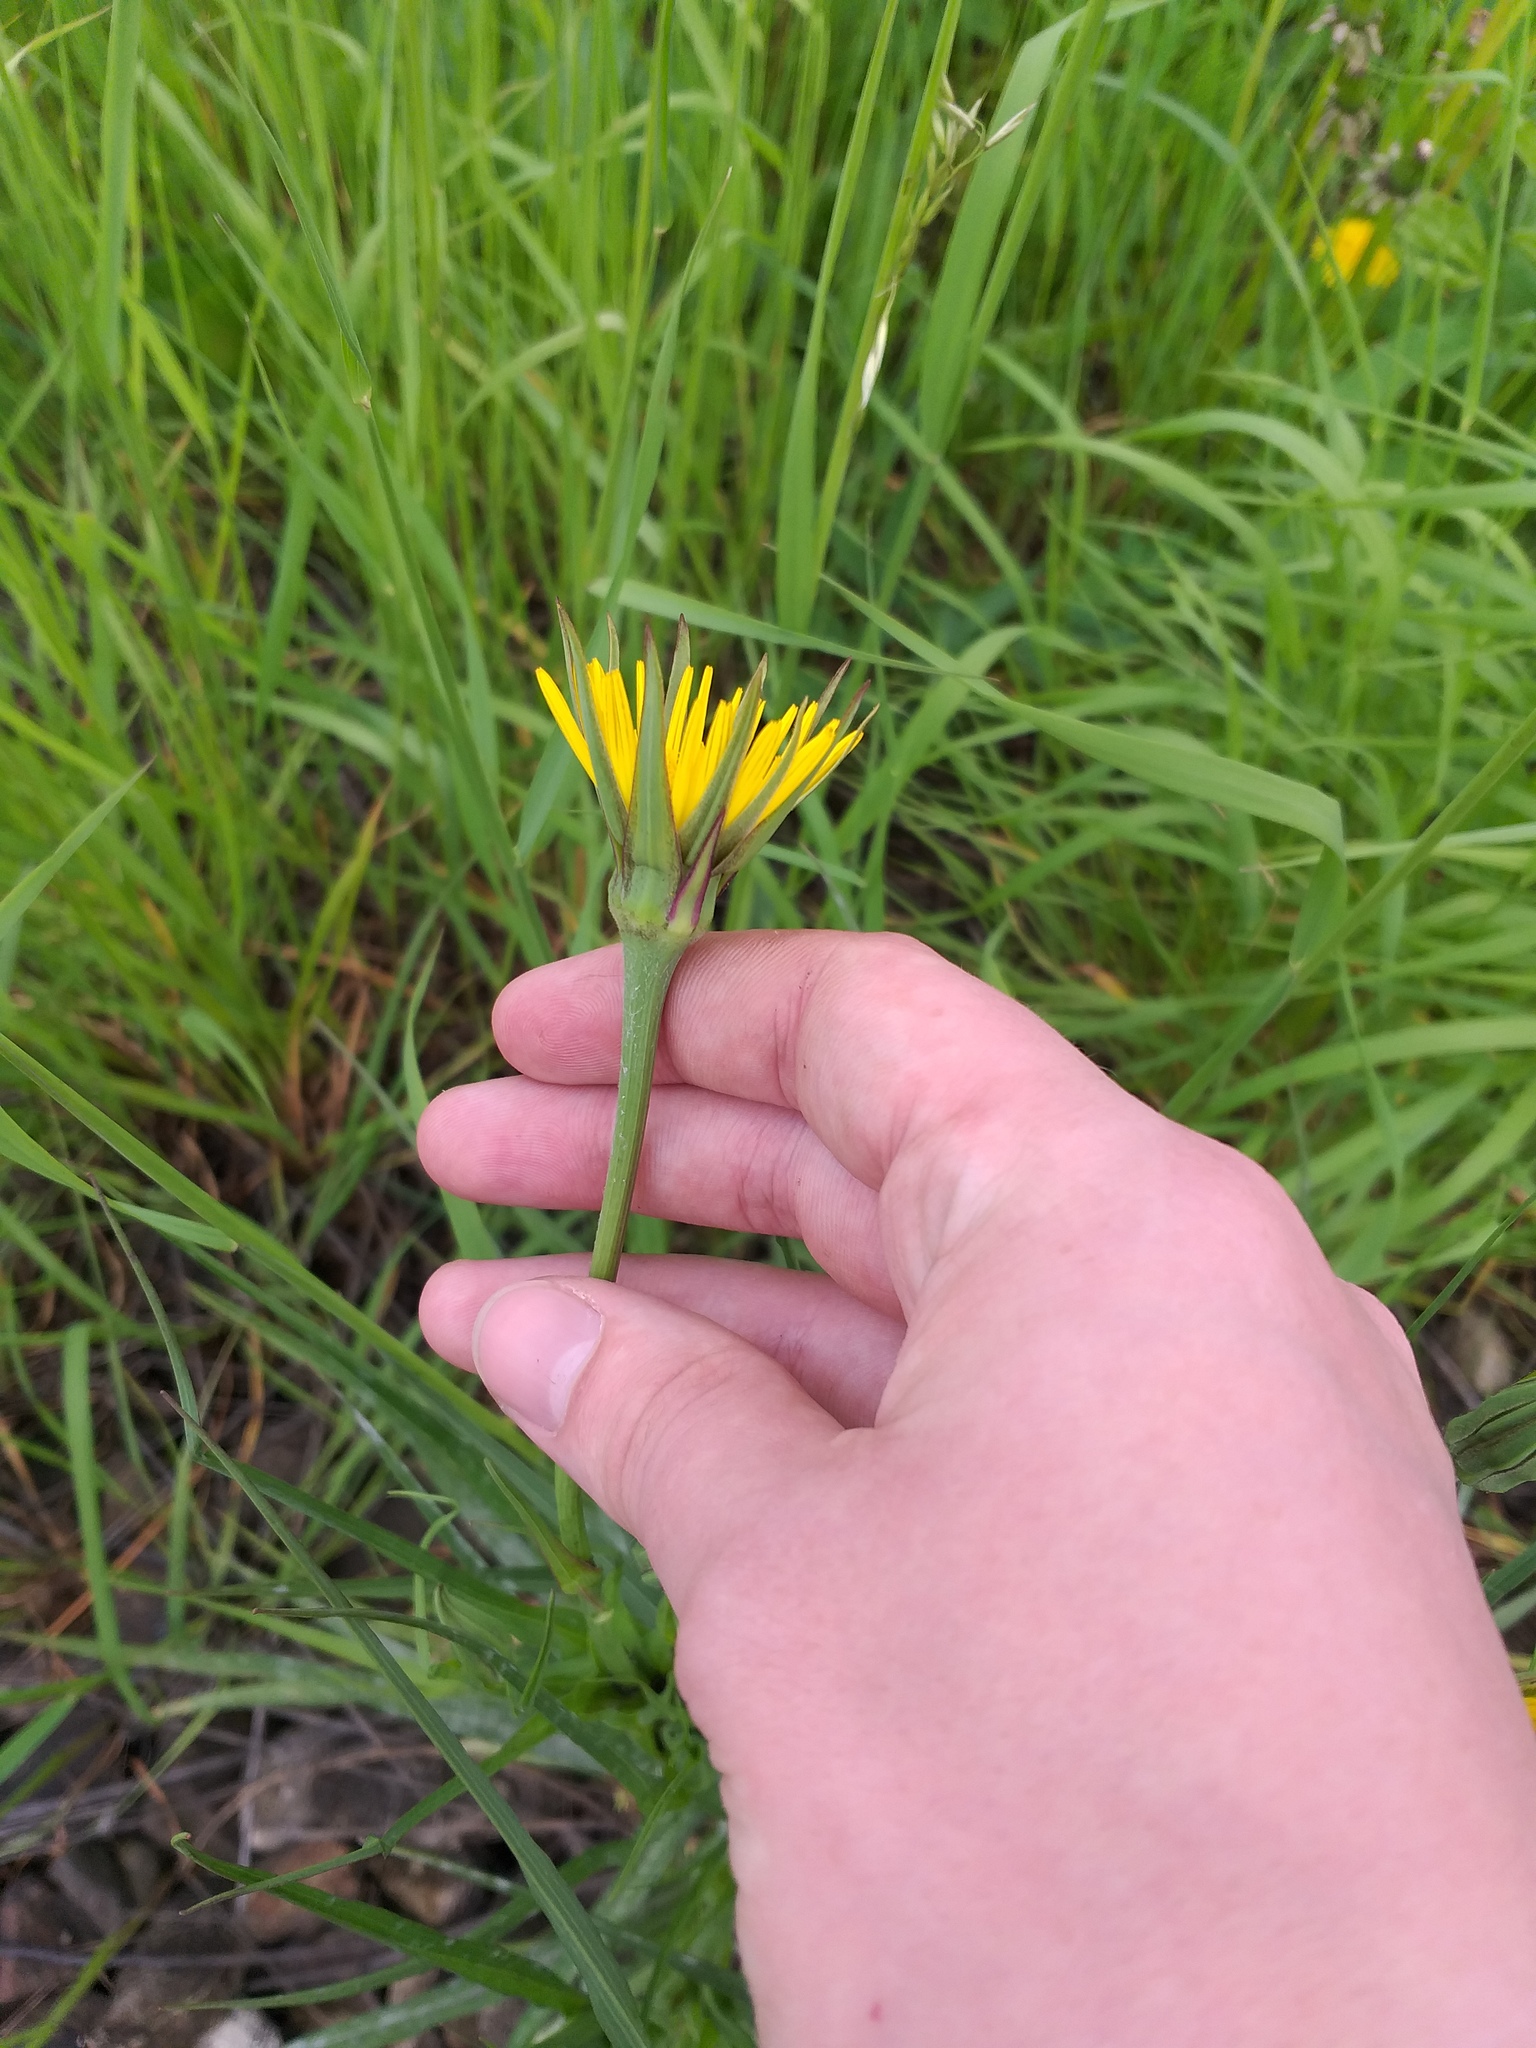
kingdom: Plantae
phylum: Tracheophyta
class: Magnoliopsida
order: Asterales
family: Asteraceae
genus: Tragopogon
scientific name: Tragopogon pratensis
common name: Goat's-beard
